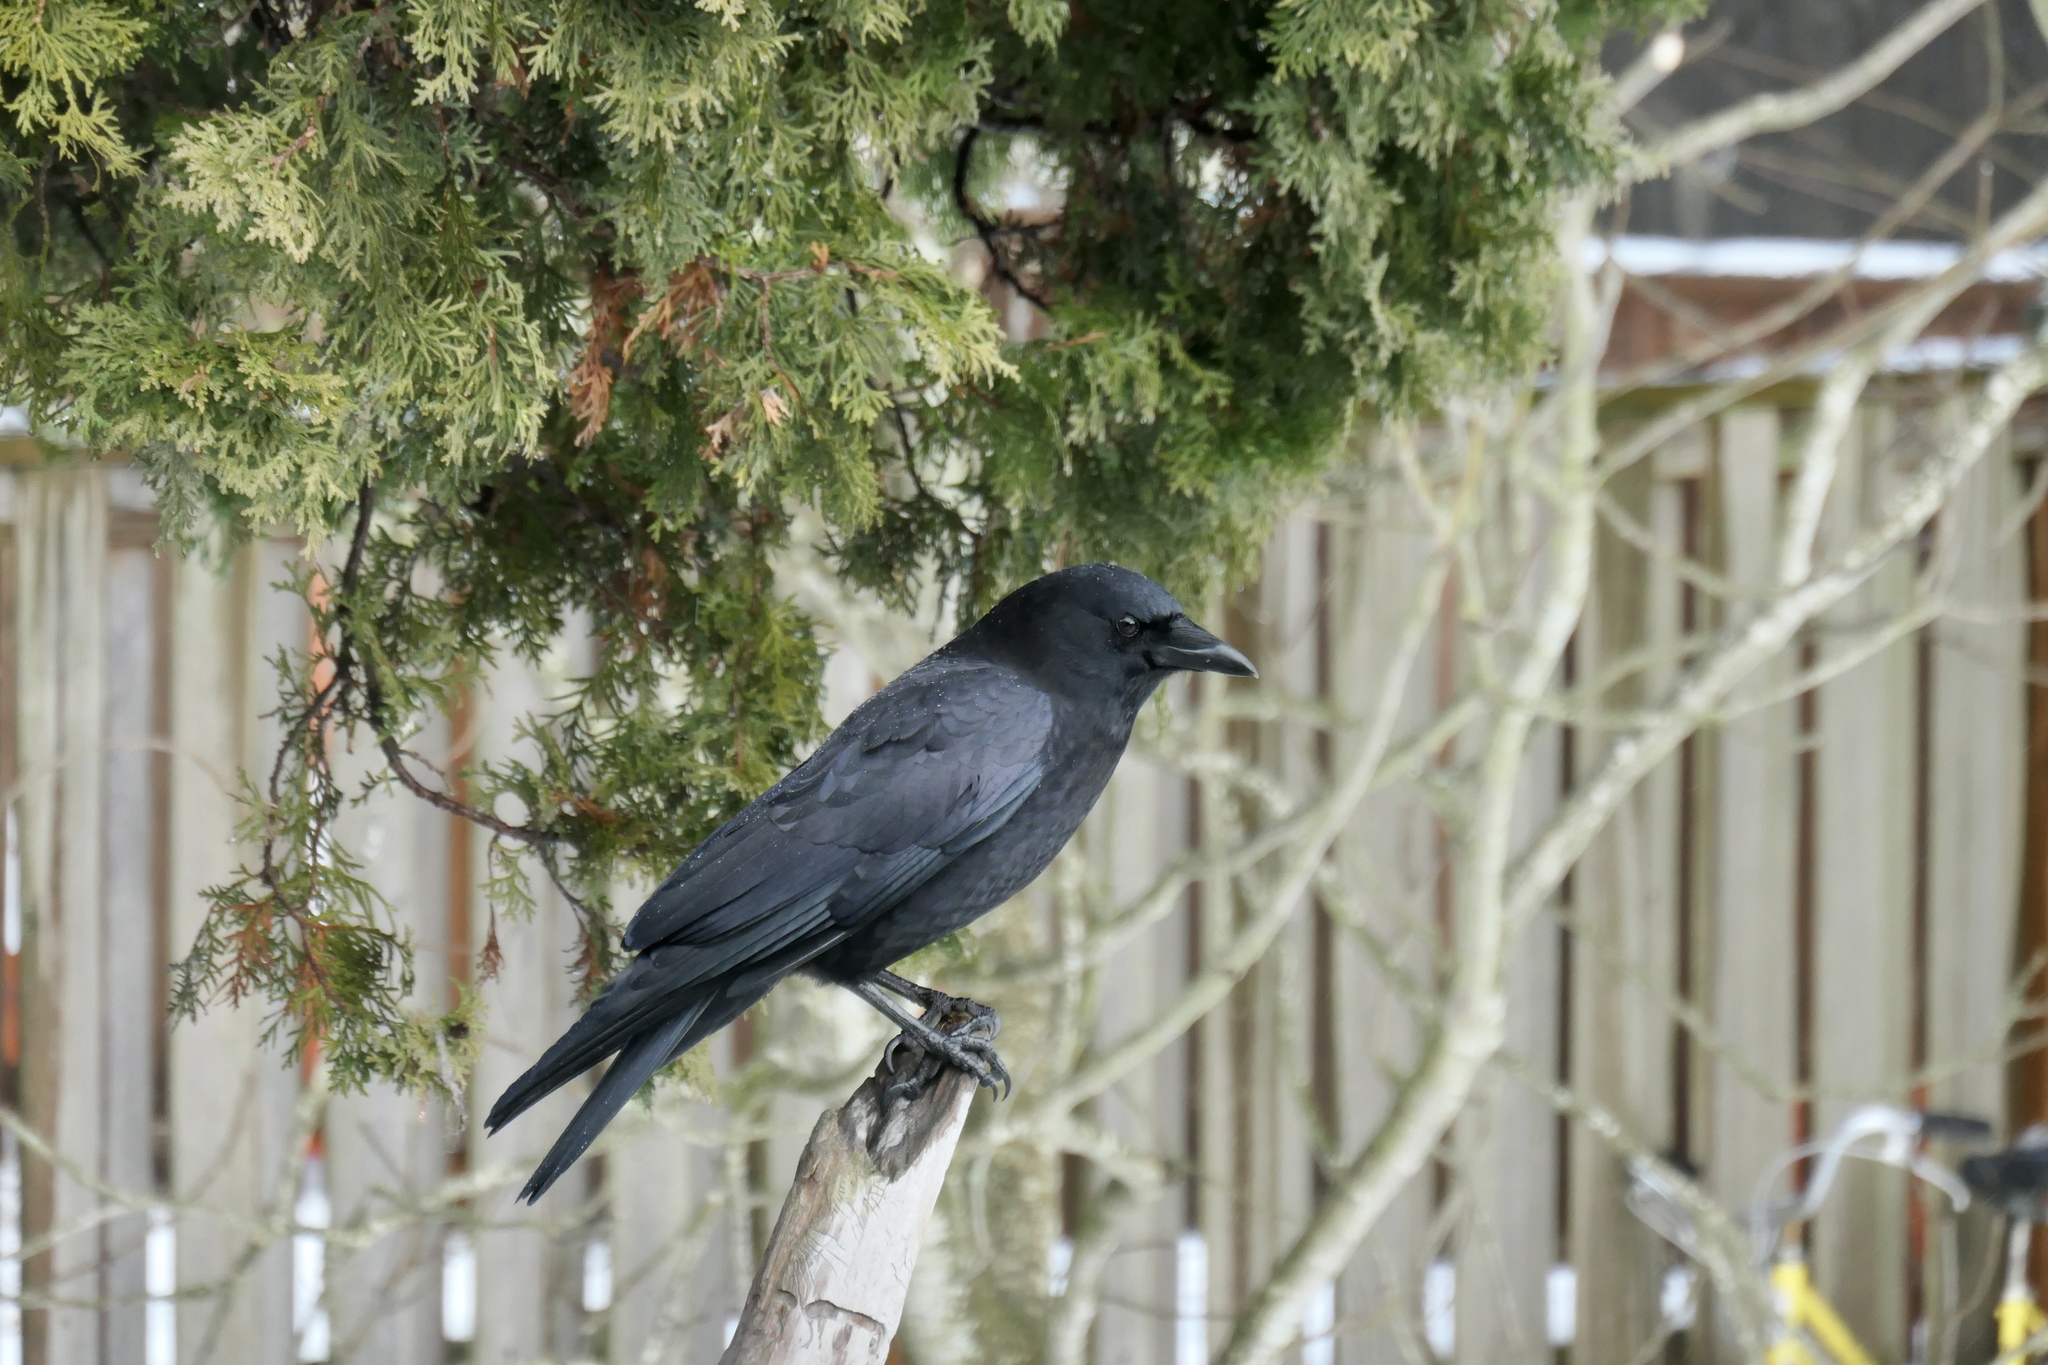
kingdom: Animalia
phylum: Chordata
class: Aves
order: Passeriformes
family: Corvidae
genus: Corvus
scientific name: Corvus brachyrhynchos
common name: American crow
